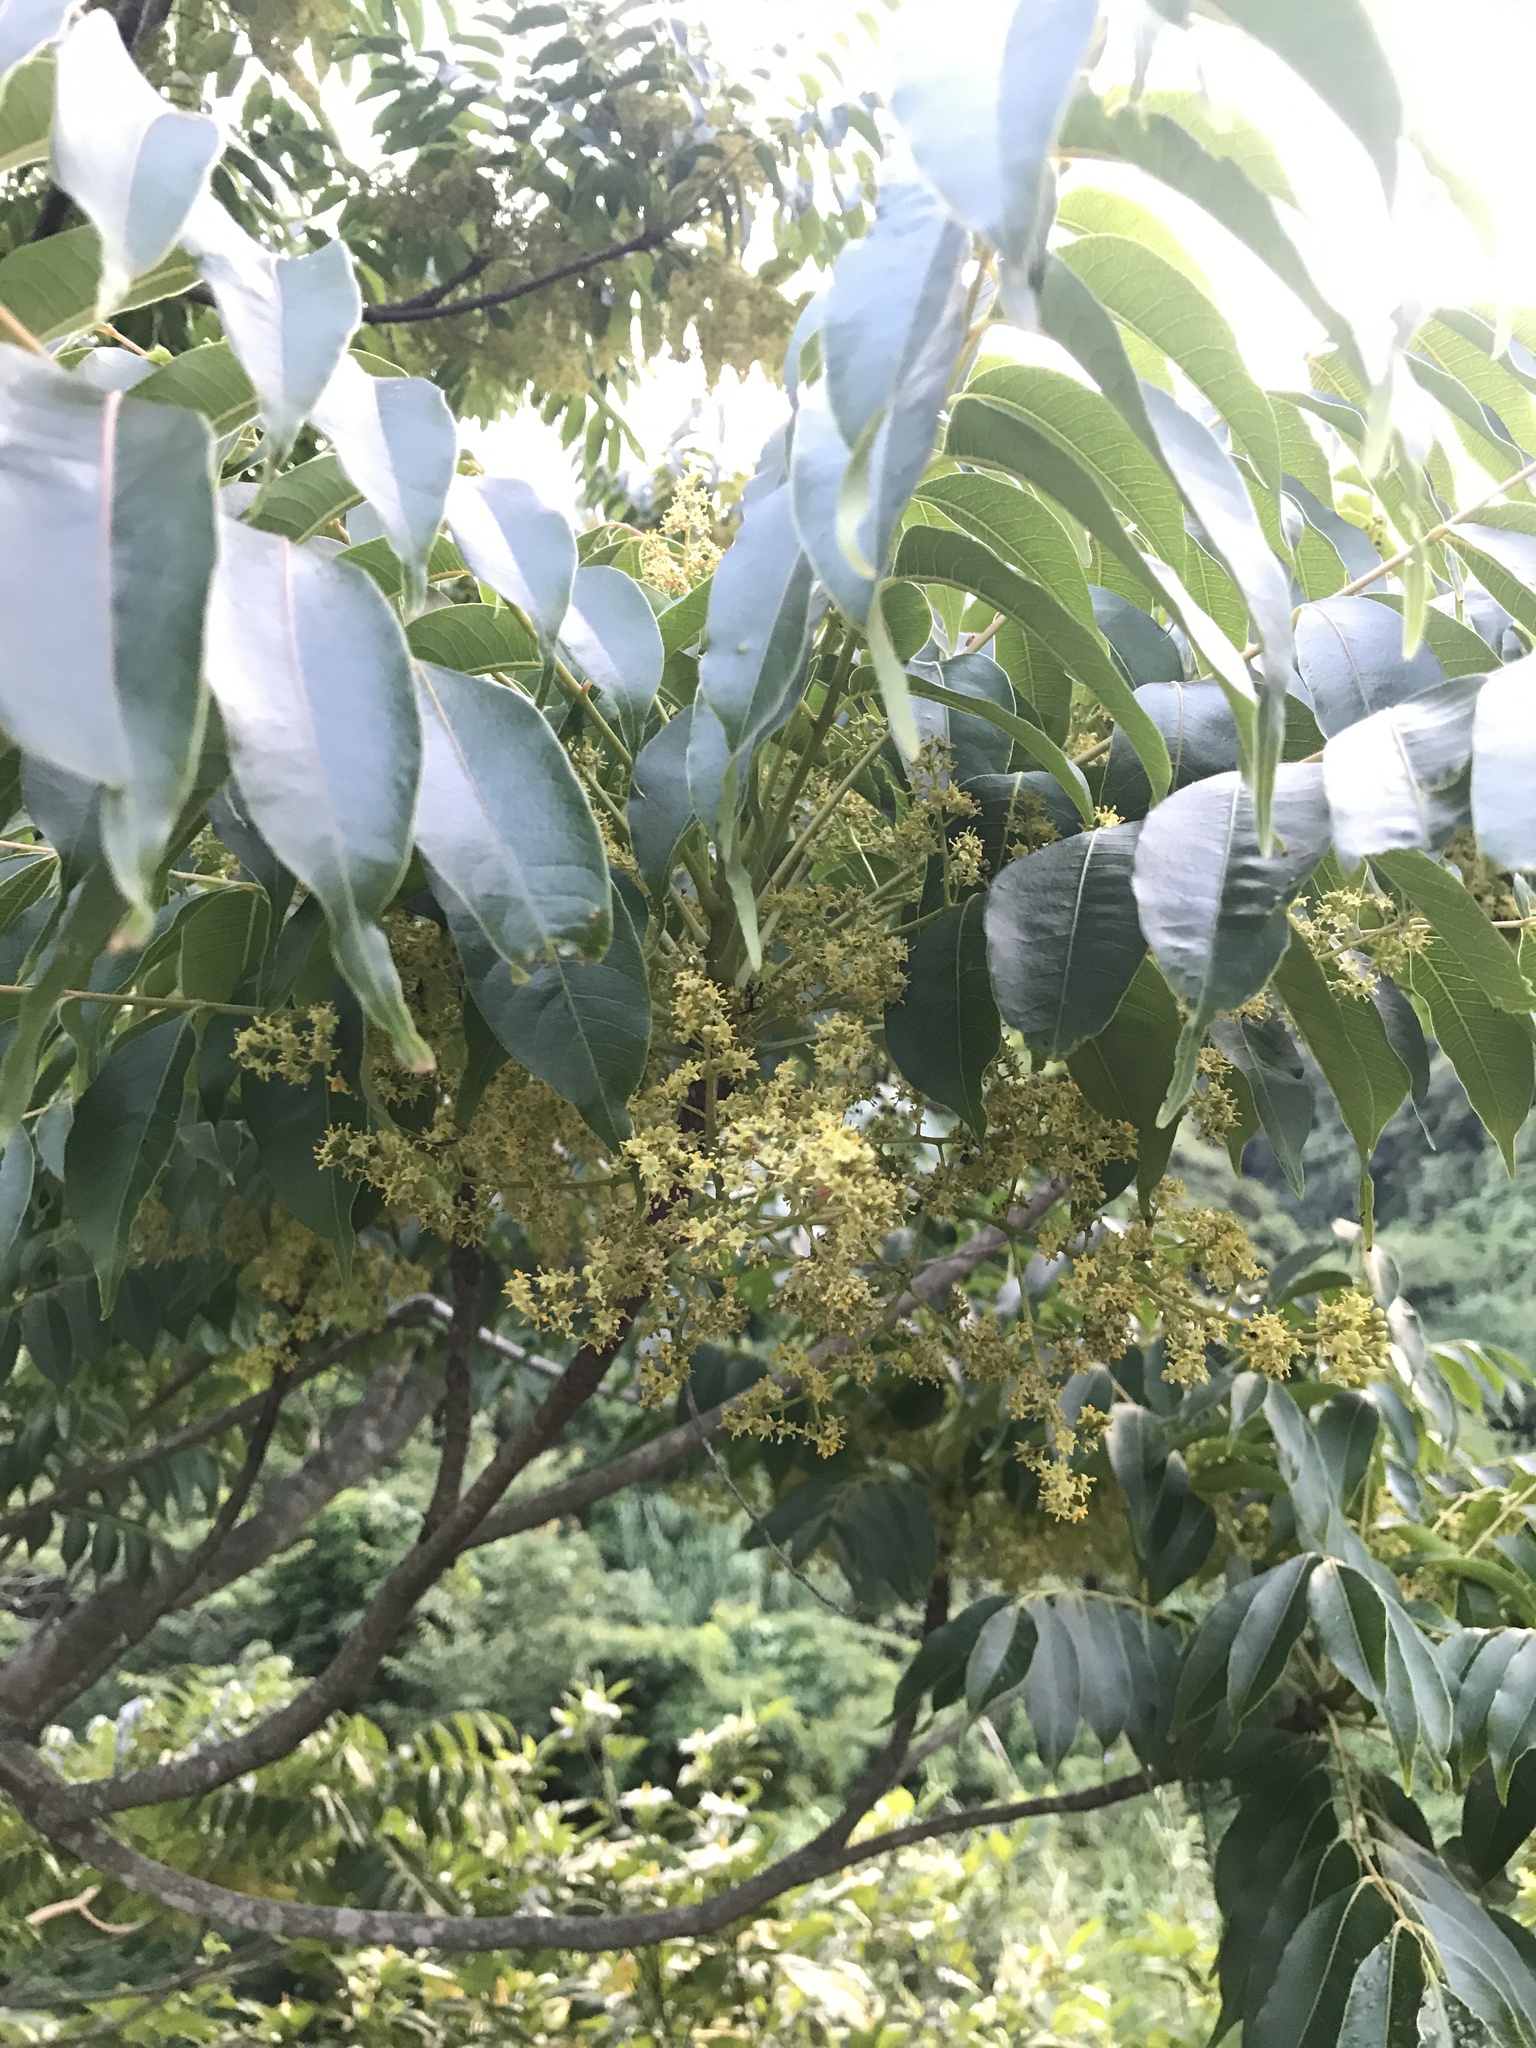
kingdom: Plantae
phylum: Tracheophyta
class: Magnoliopsida
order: Sapindales
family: Anacardiaceae
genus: Toxicodendron
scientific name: Toxicodendron succedaneum
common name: Wax tree
